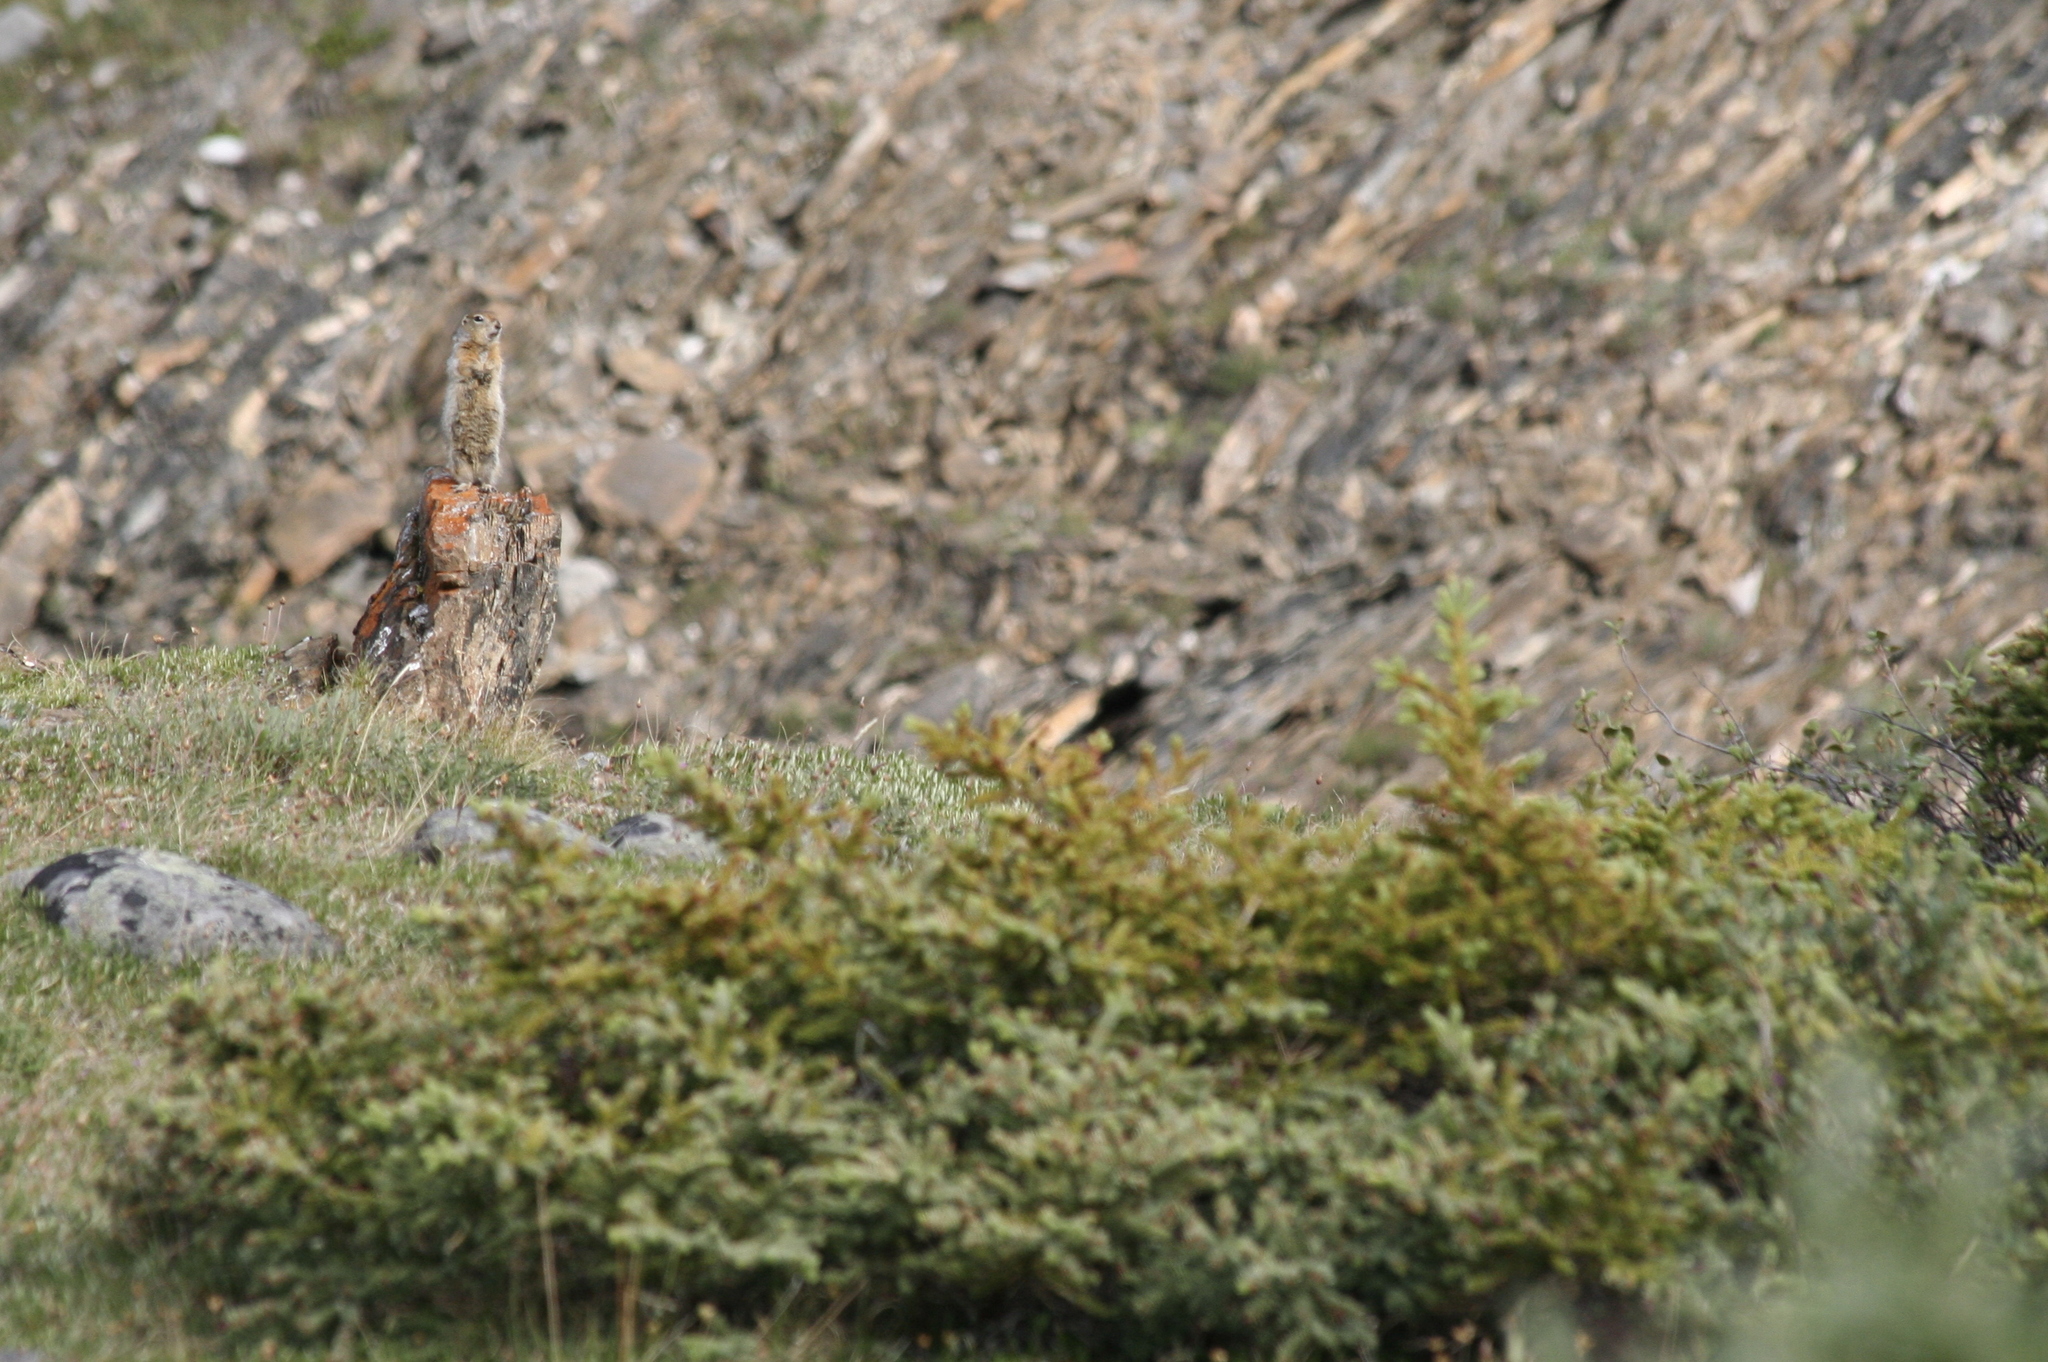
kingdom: Animalia
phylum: Chordata
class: Mammalia
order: Rodentia
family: Sciuridae
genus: Urocitellus
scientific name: Urocitellus parryii
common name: Arctic ground squirrel
